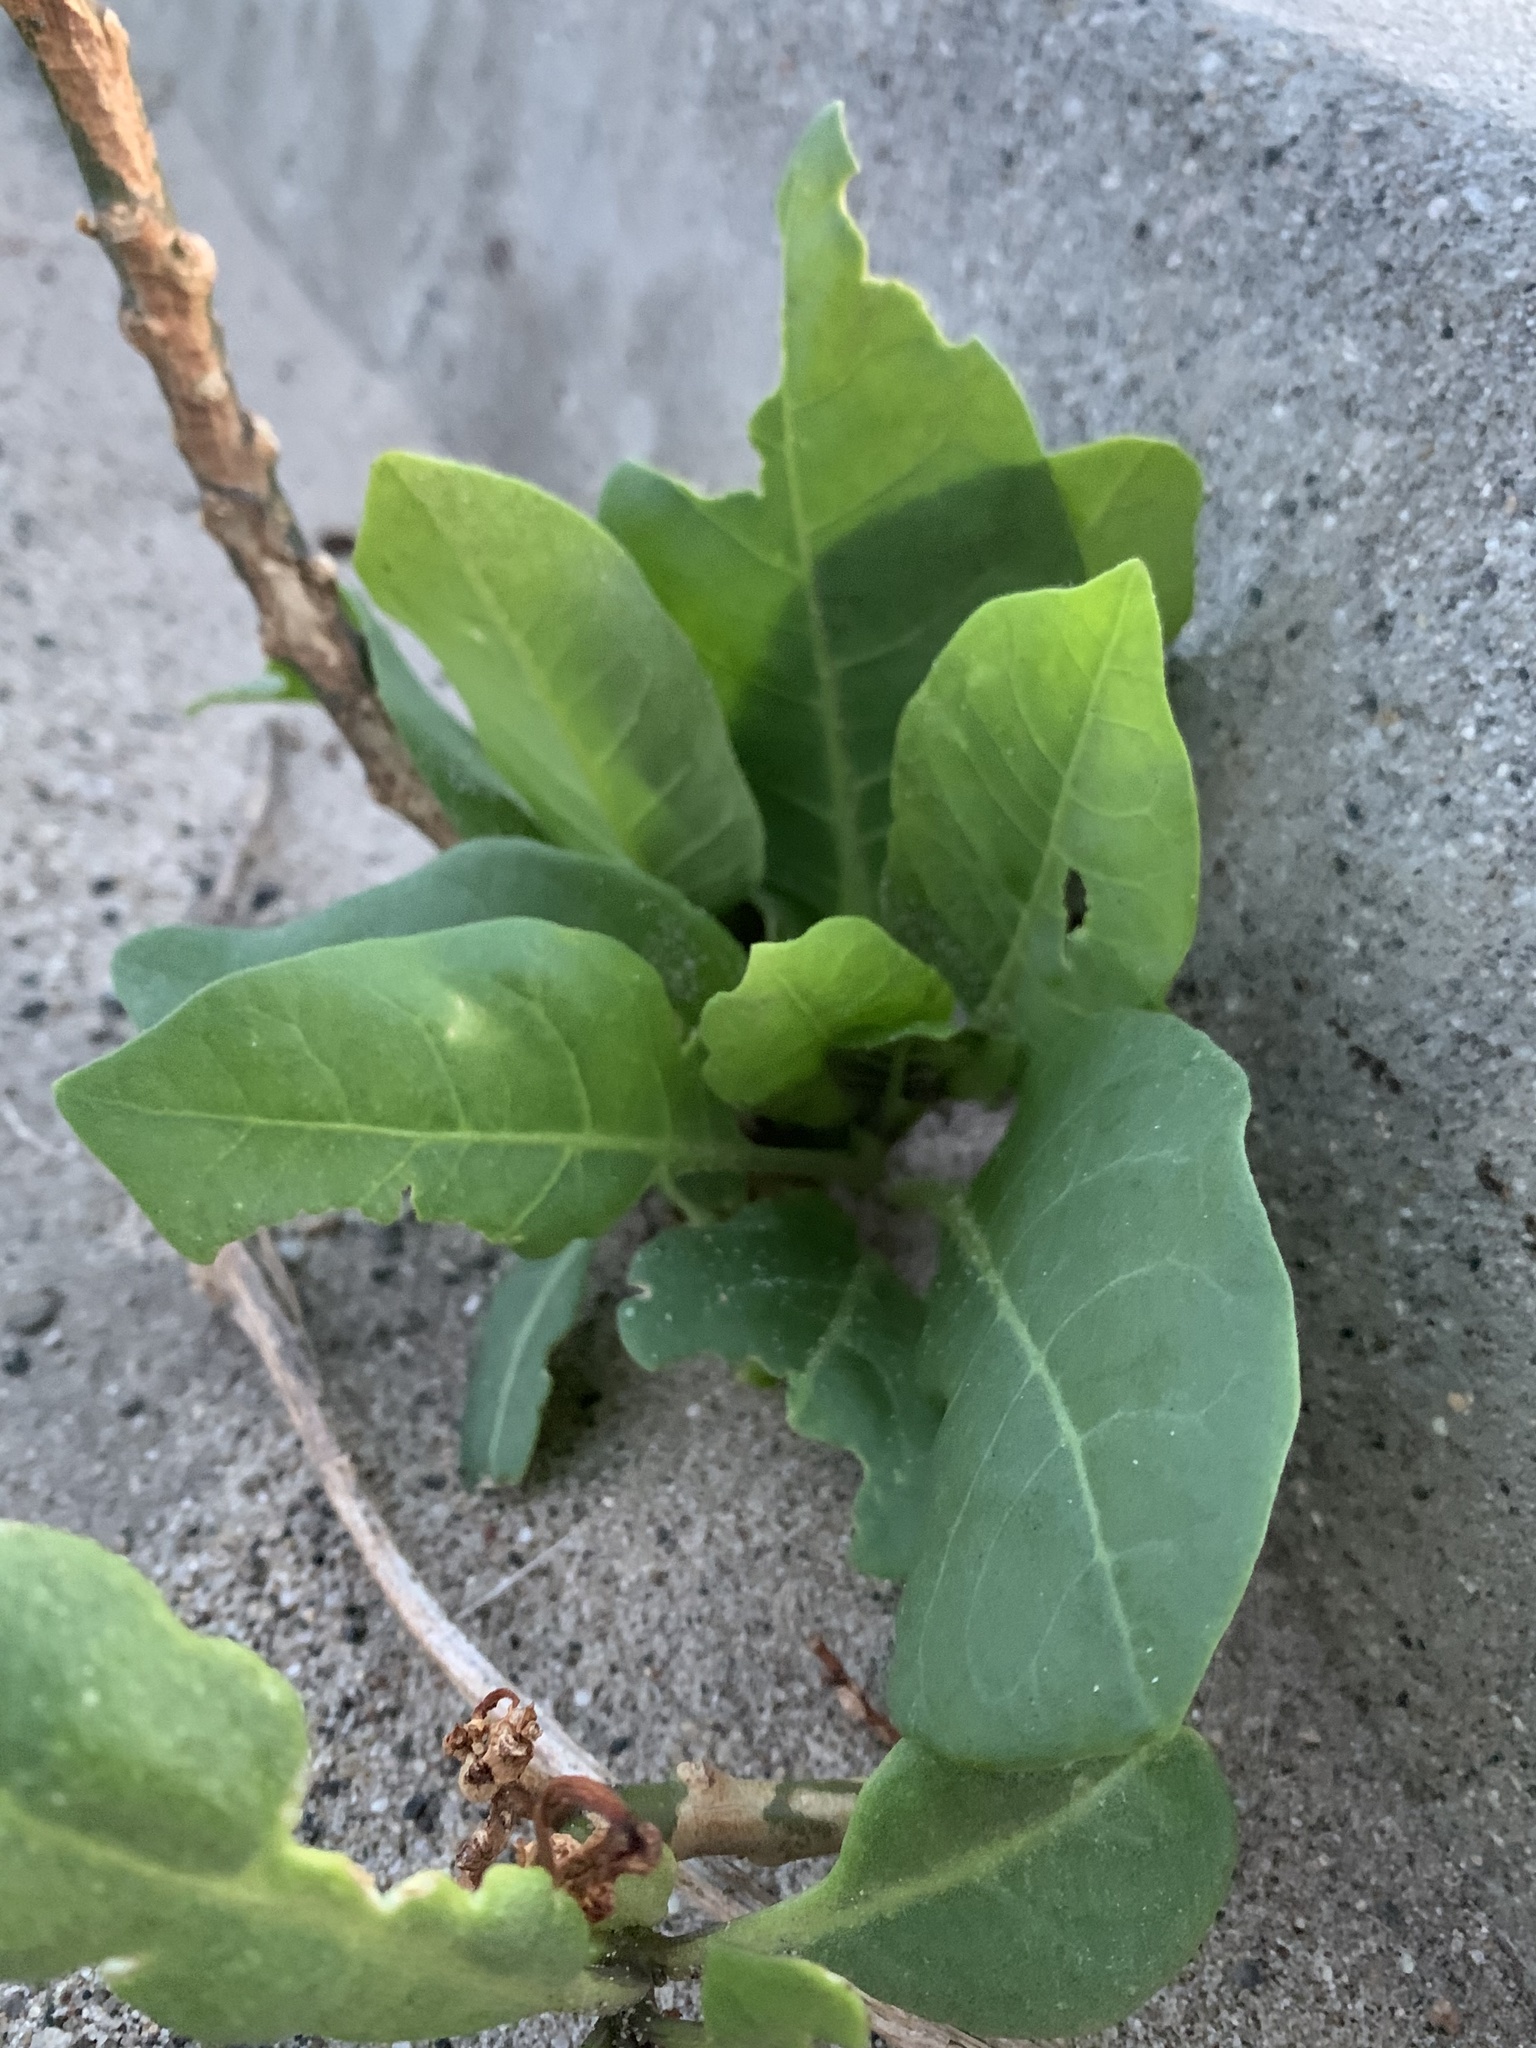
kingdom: Plantae
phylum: Tracheophyta
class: Magnoliopsida
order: Solanales
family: Solanaceae
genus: Nicotiana
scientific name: Nicotiana glauca
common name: Tree tobacco
